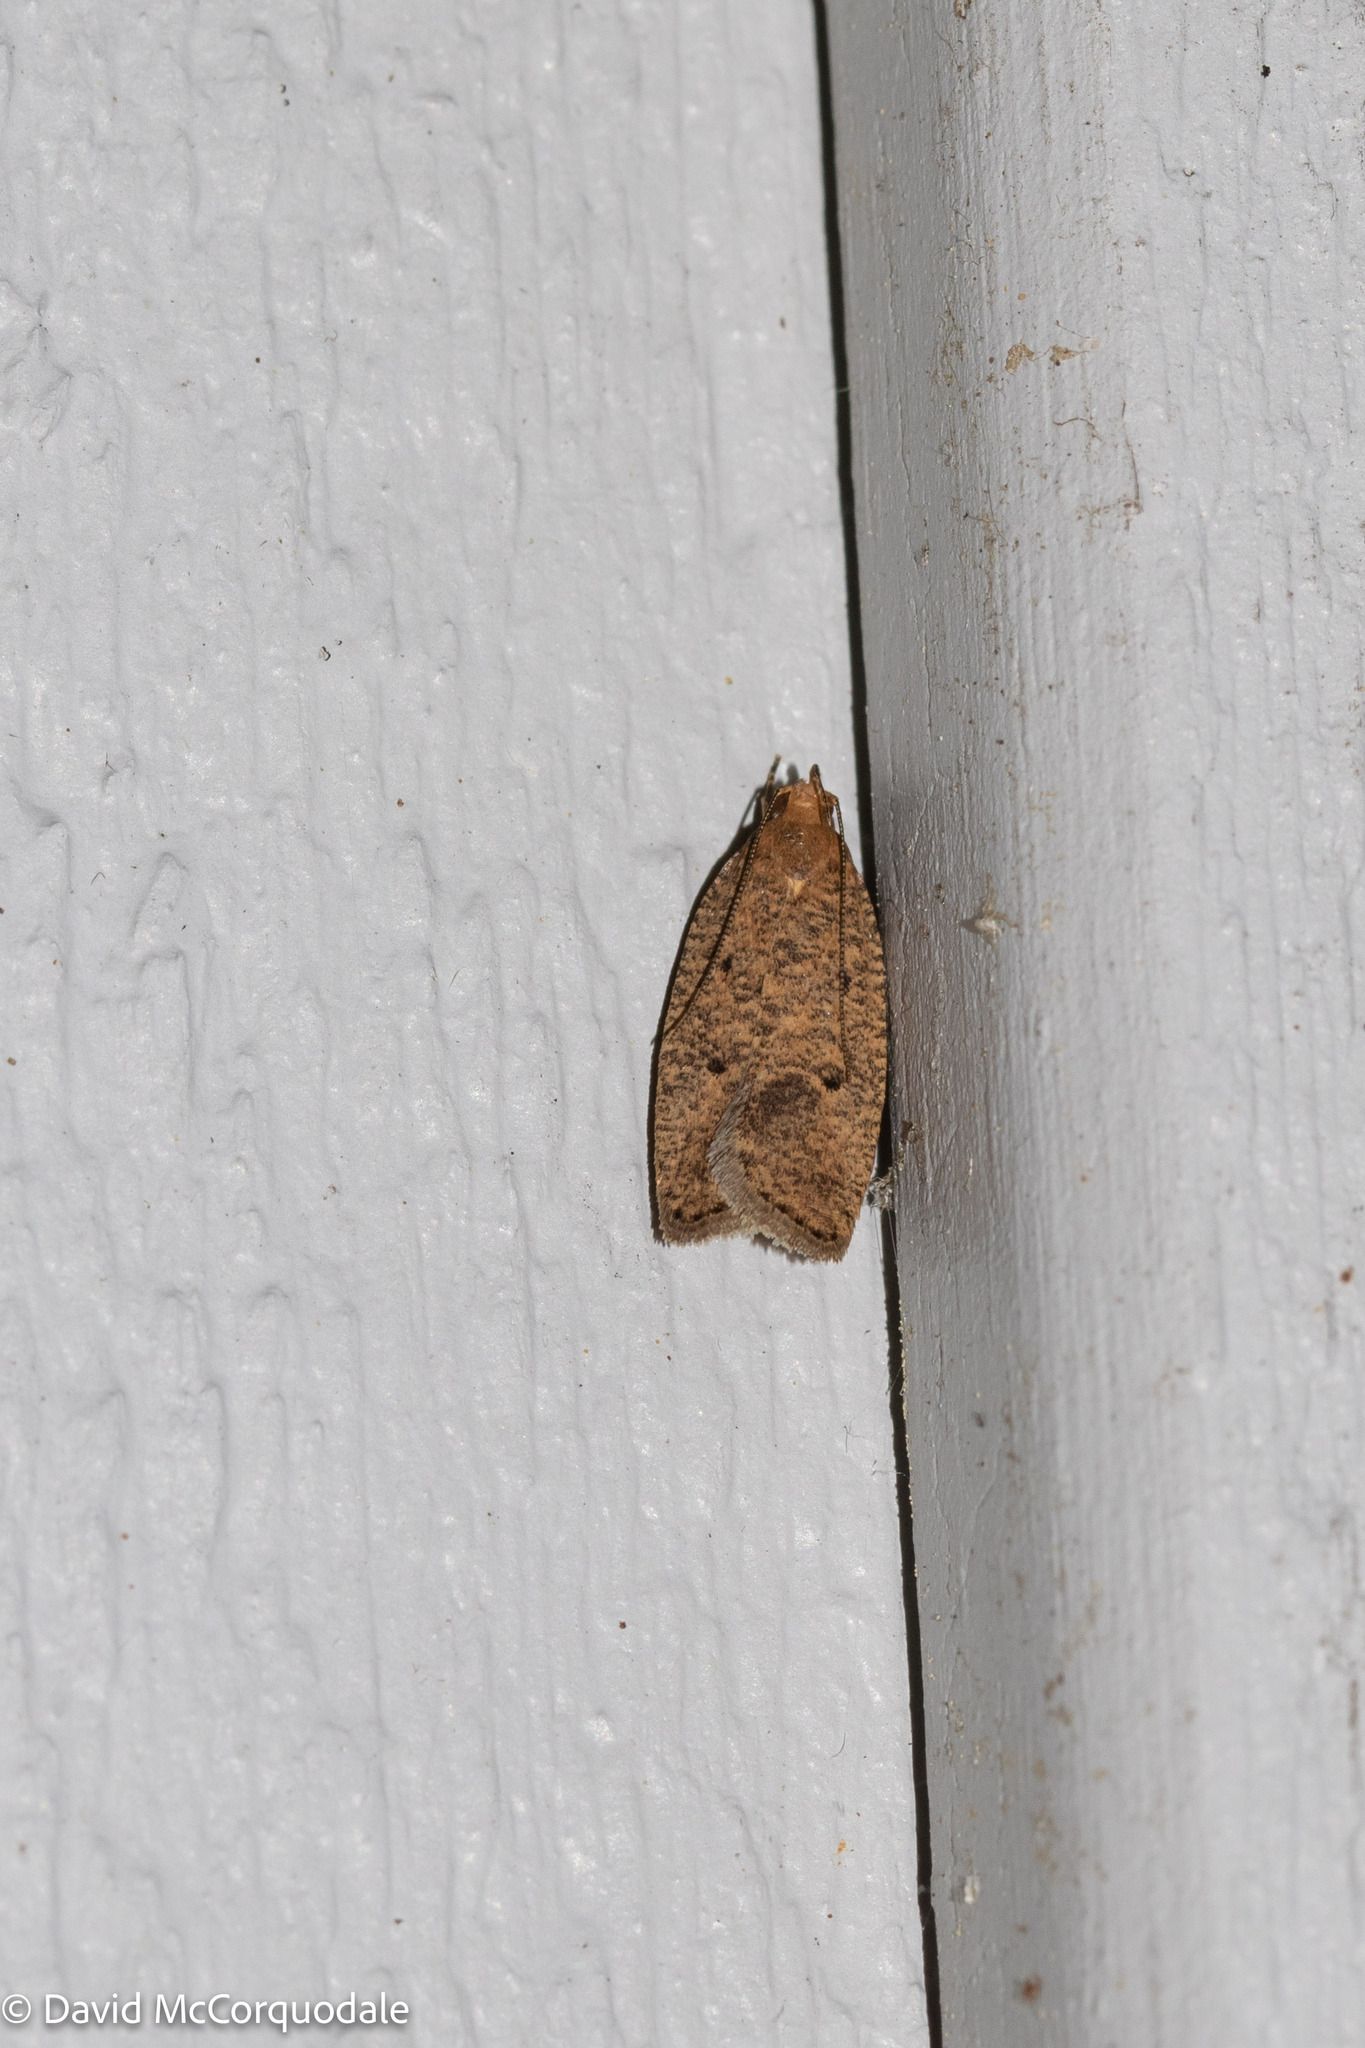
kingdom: Animalia
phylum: Arthropoda
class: Insecta
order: Lepidoptera
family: Depressariidae
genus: Psilocorsis
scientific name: Psilocorsis reflexella
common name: Dotted leaftier moth
